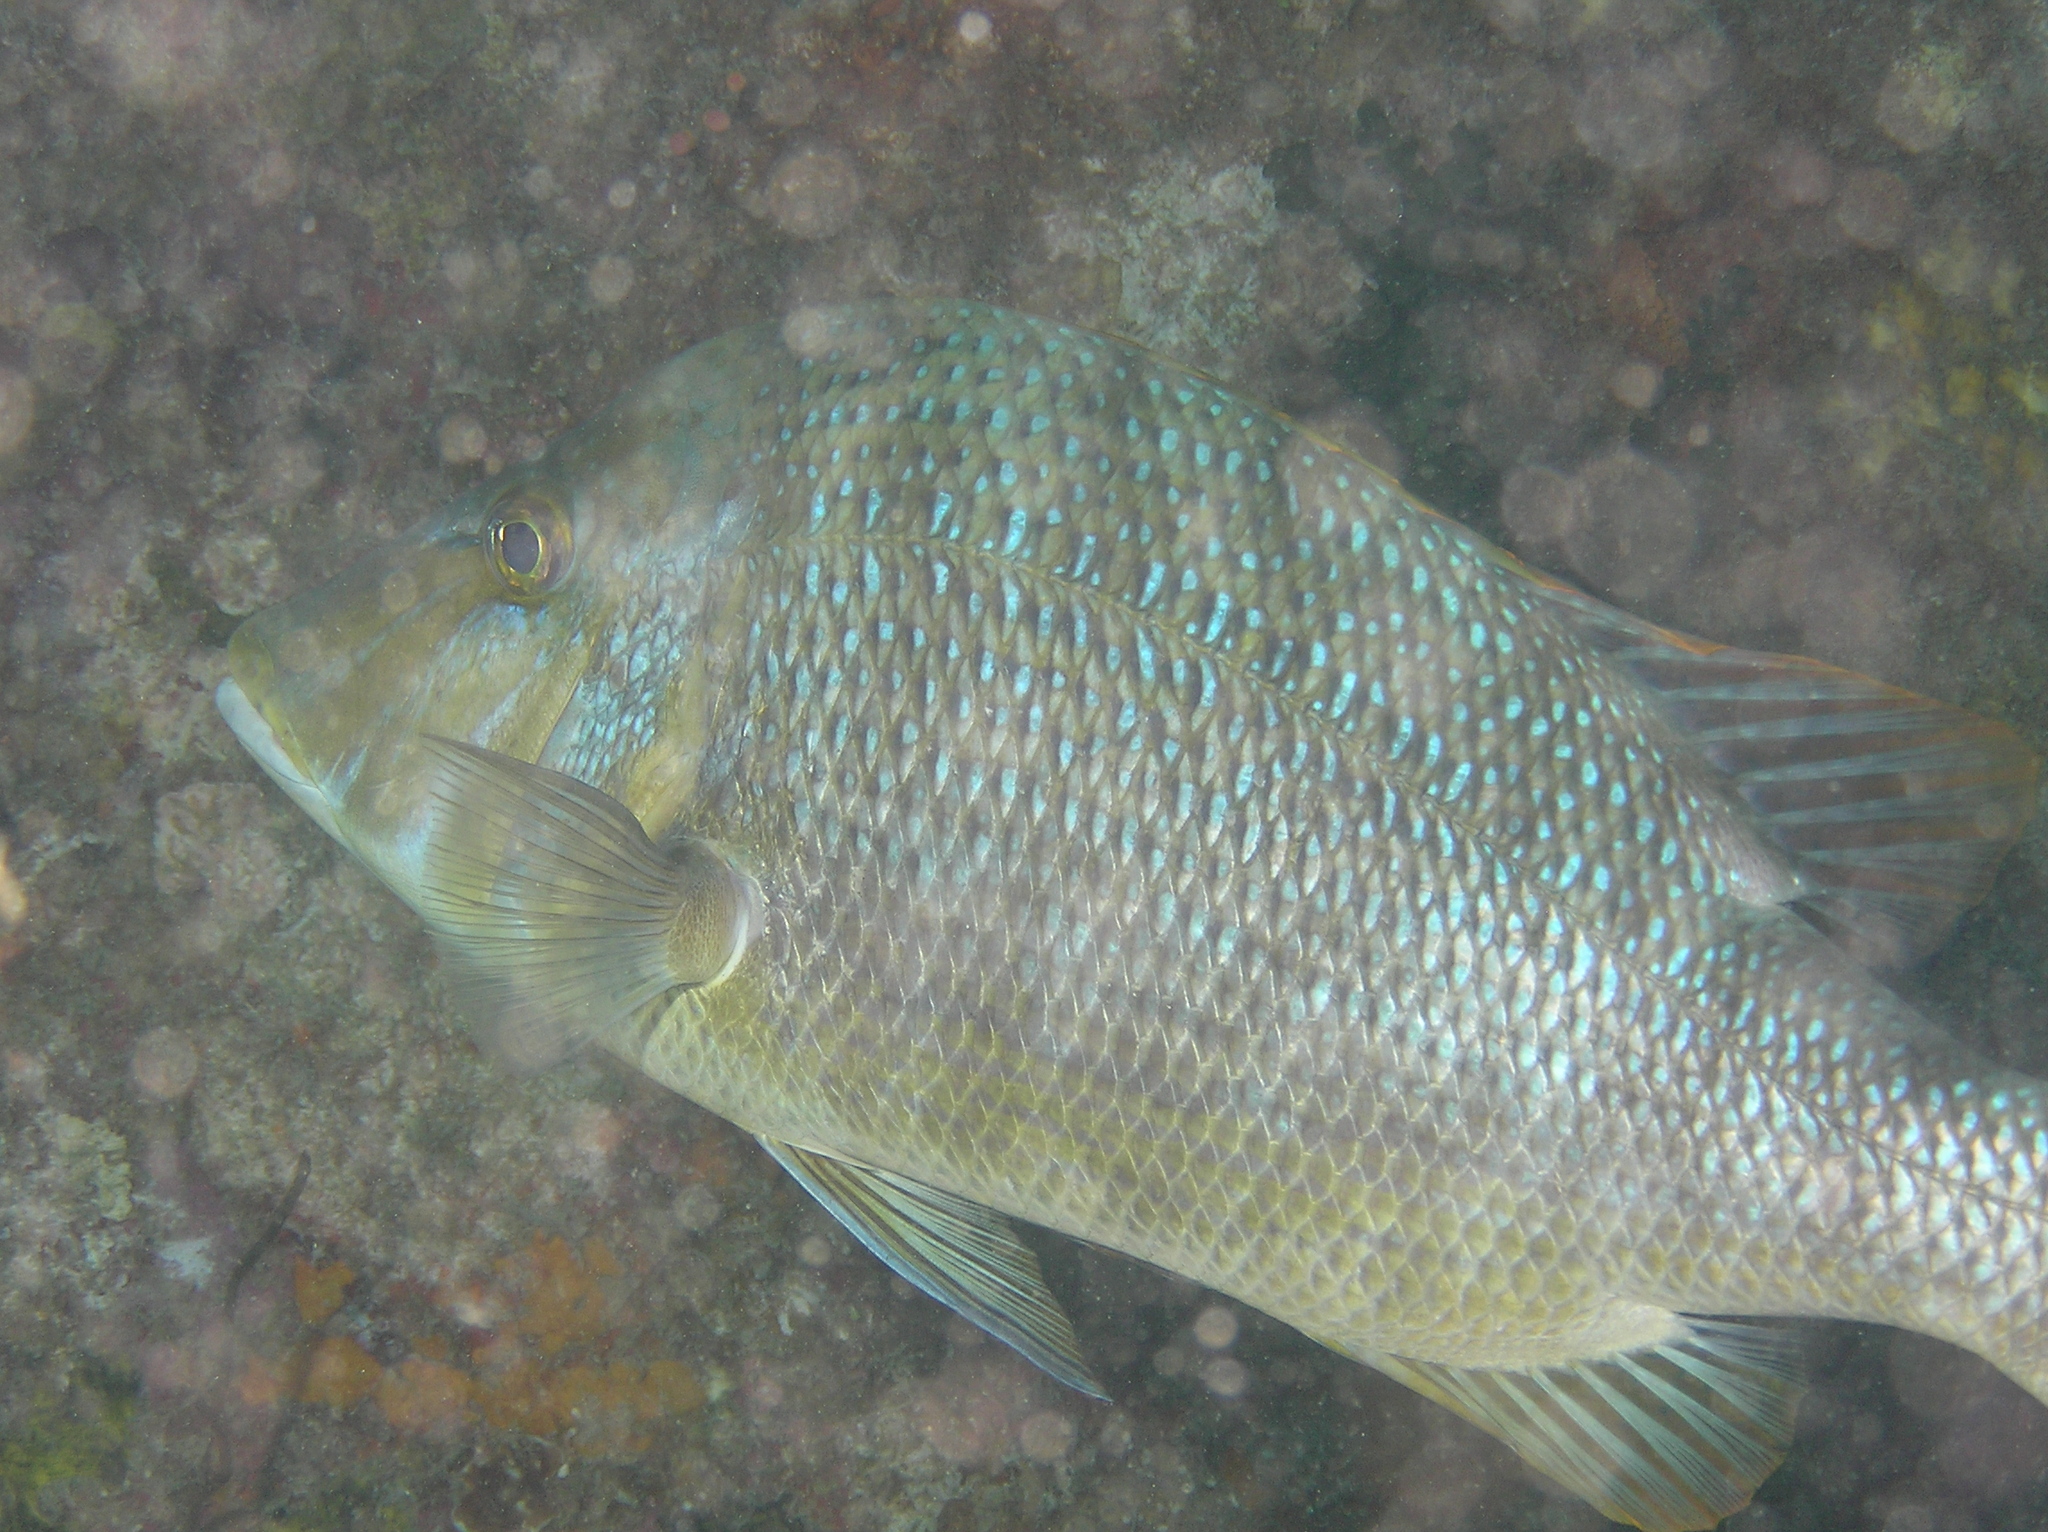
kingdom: Animalia
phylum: Chordata
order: Perciformes
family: Lethrinidae
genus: Lethrinus
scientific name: Lethrinus nebulosus
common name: Spangled emperor
